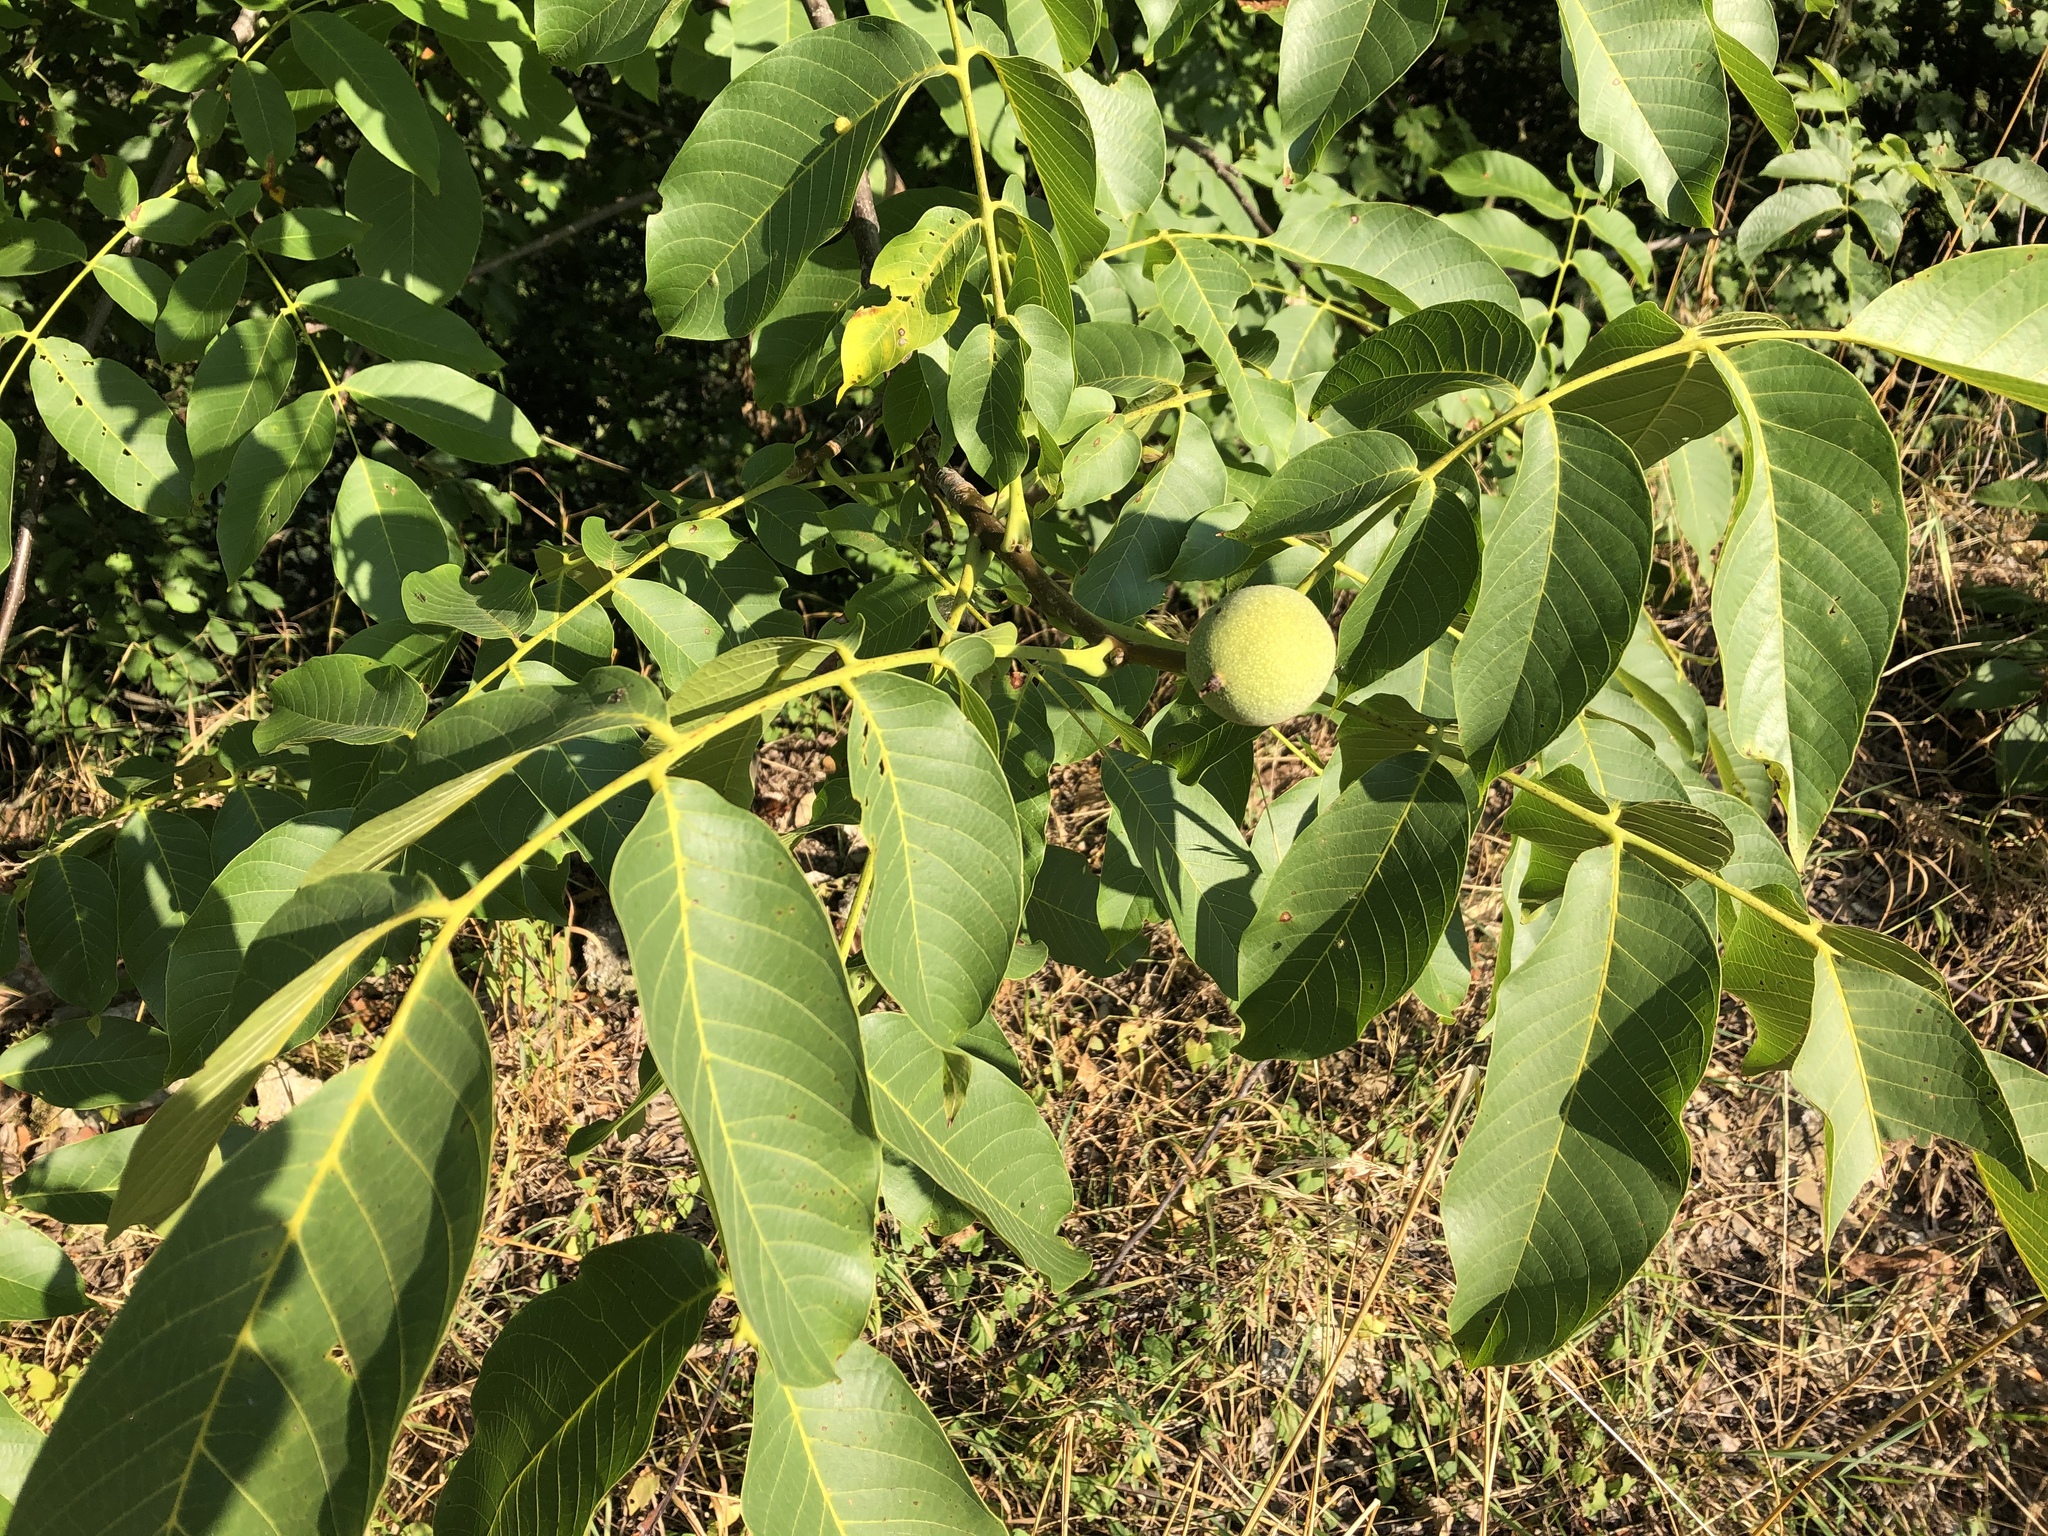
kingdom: Plantae
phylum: Tracheophyta
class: Magnoliopsida
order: Fagales
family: Juglandaceae
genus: Juglans
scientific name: Juglans regia
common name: Walnut
